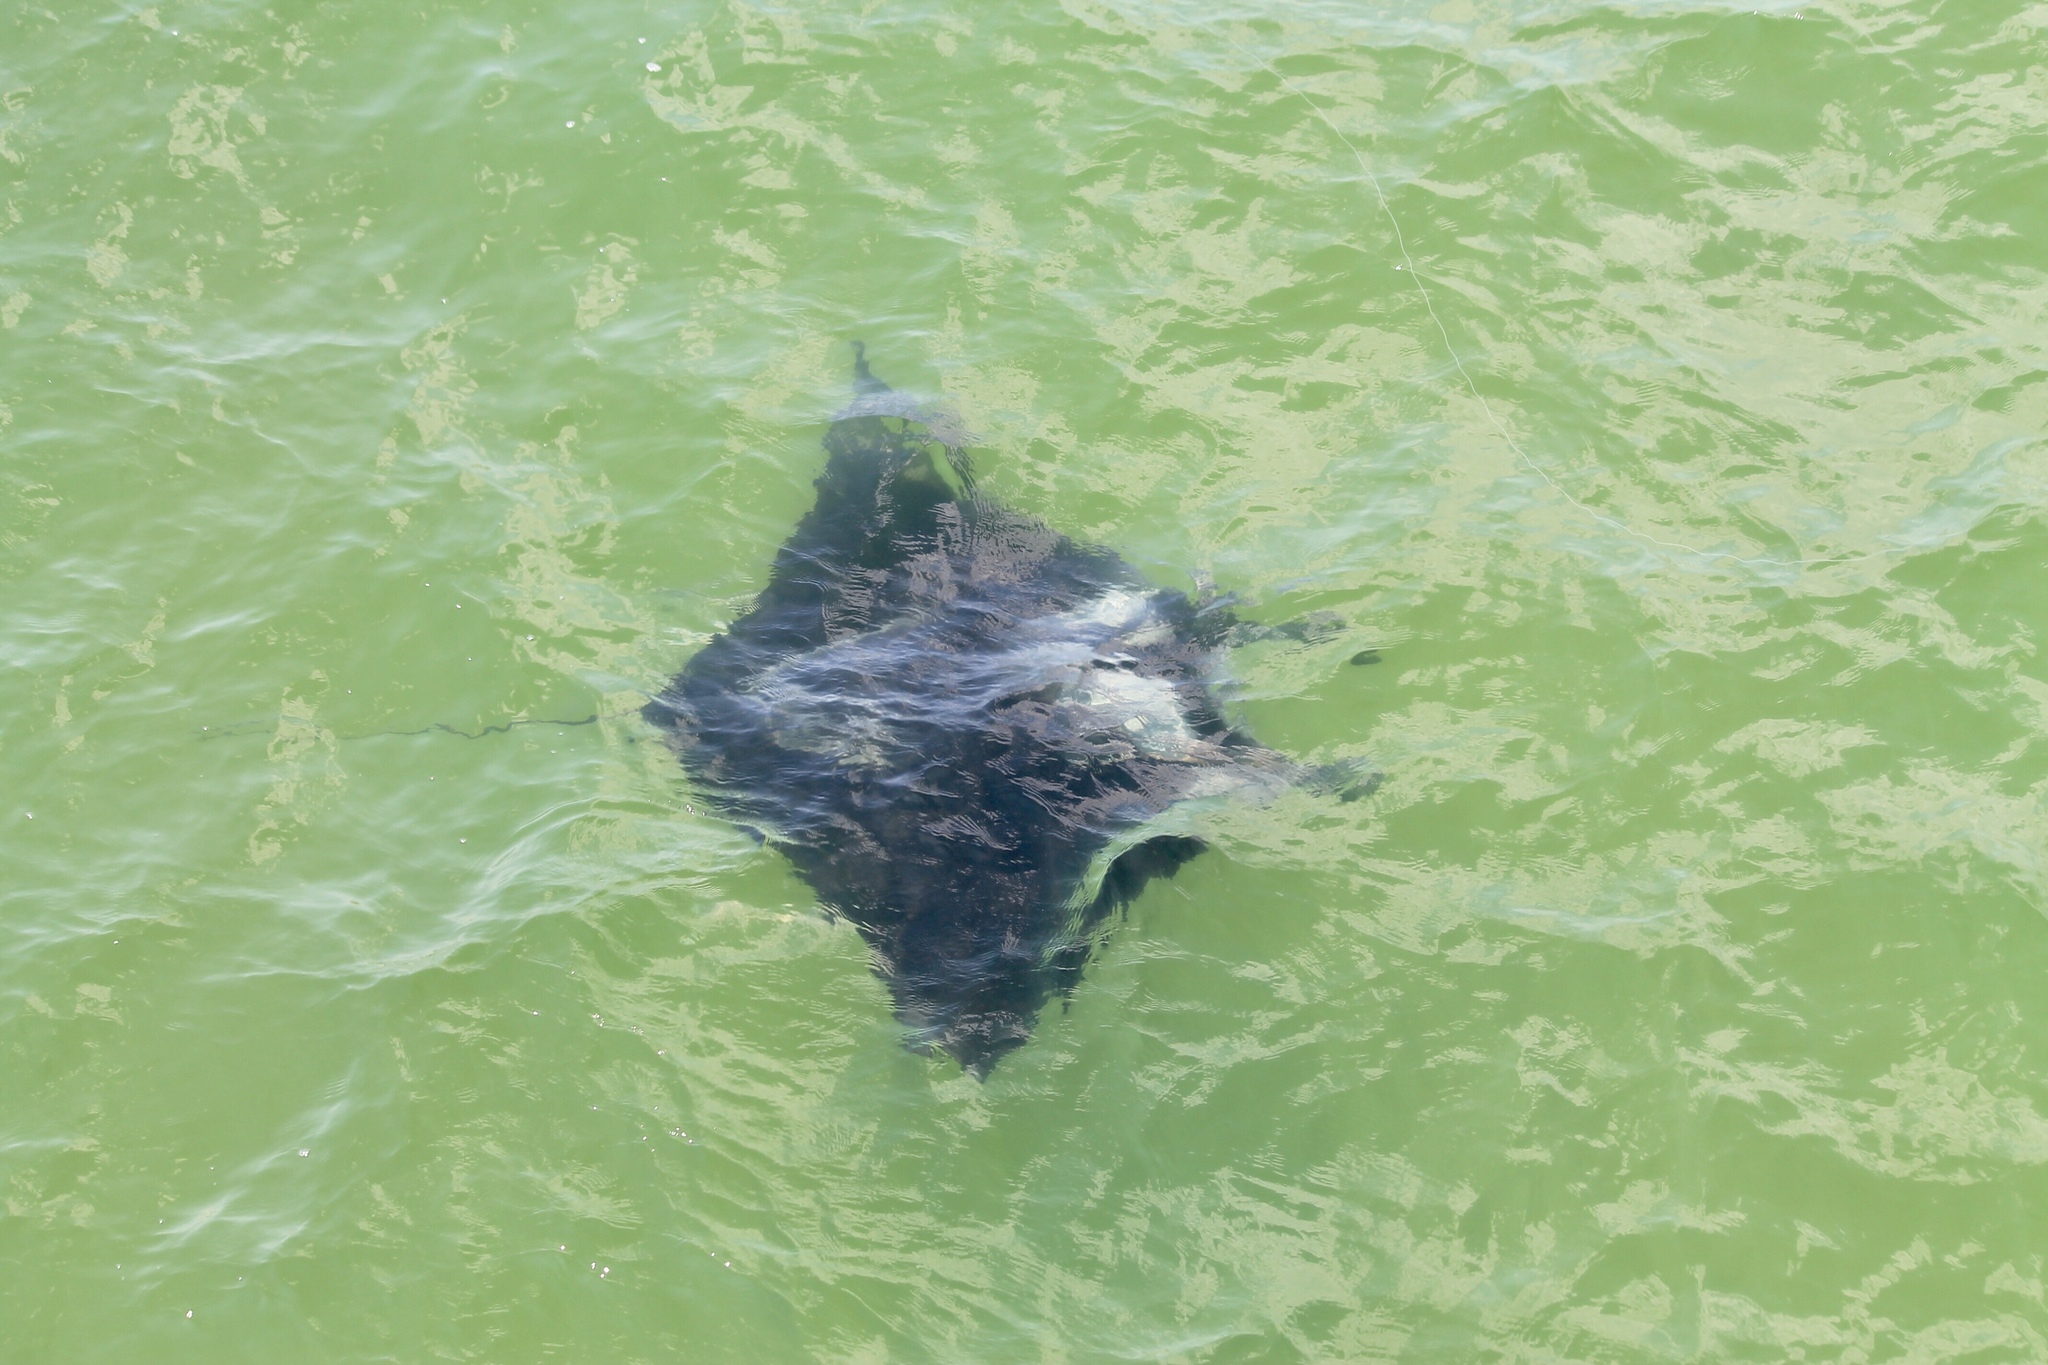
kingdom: Animalia
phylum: Chordata
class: Elasmobranchii
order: Myliobatiformes
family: Myliobatidae
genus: Mobula
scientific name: Mobula birostris
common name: Manta ray
